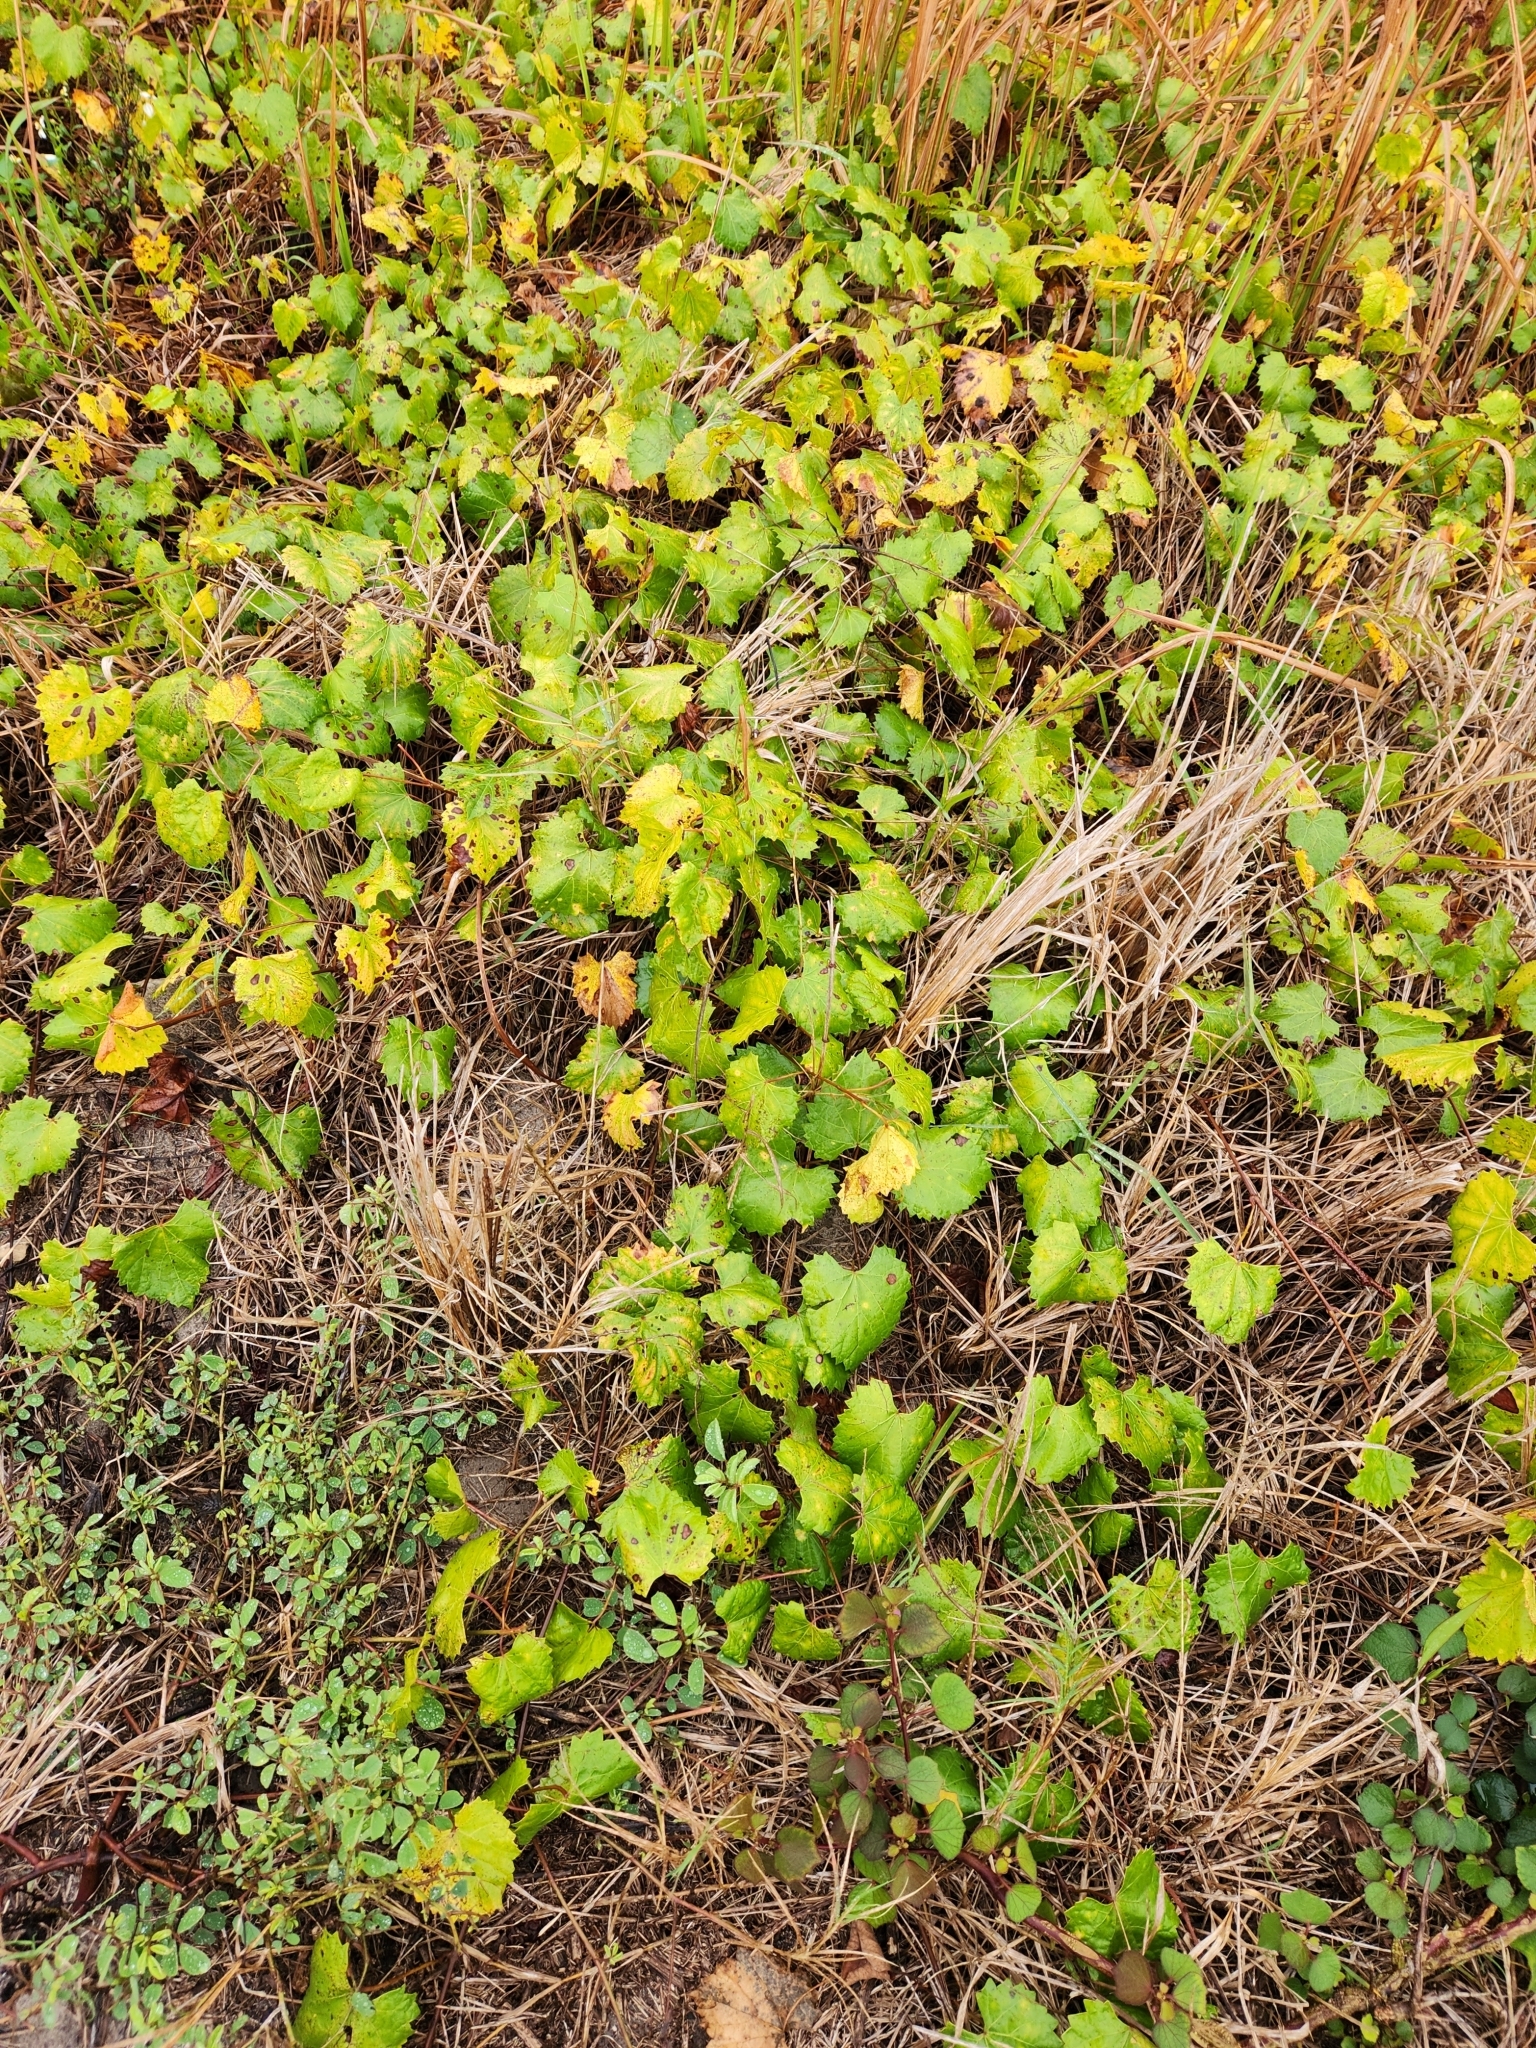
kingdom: Plantae
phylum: Tracheophyta
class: Magnoliopsida
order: Vitales
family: Vitaceae
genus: Vitis
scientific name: Vitis rotundifolia
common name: Muscadine grape
